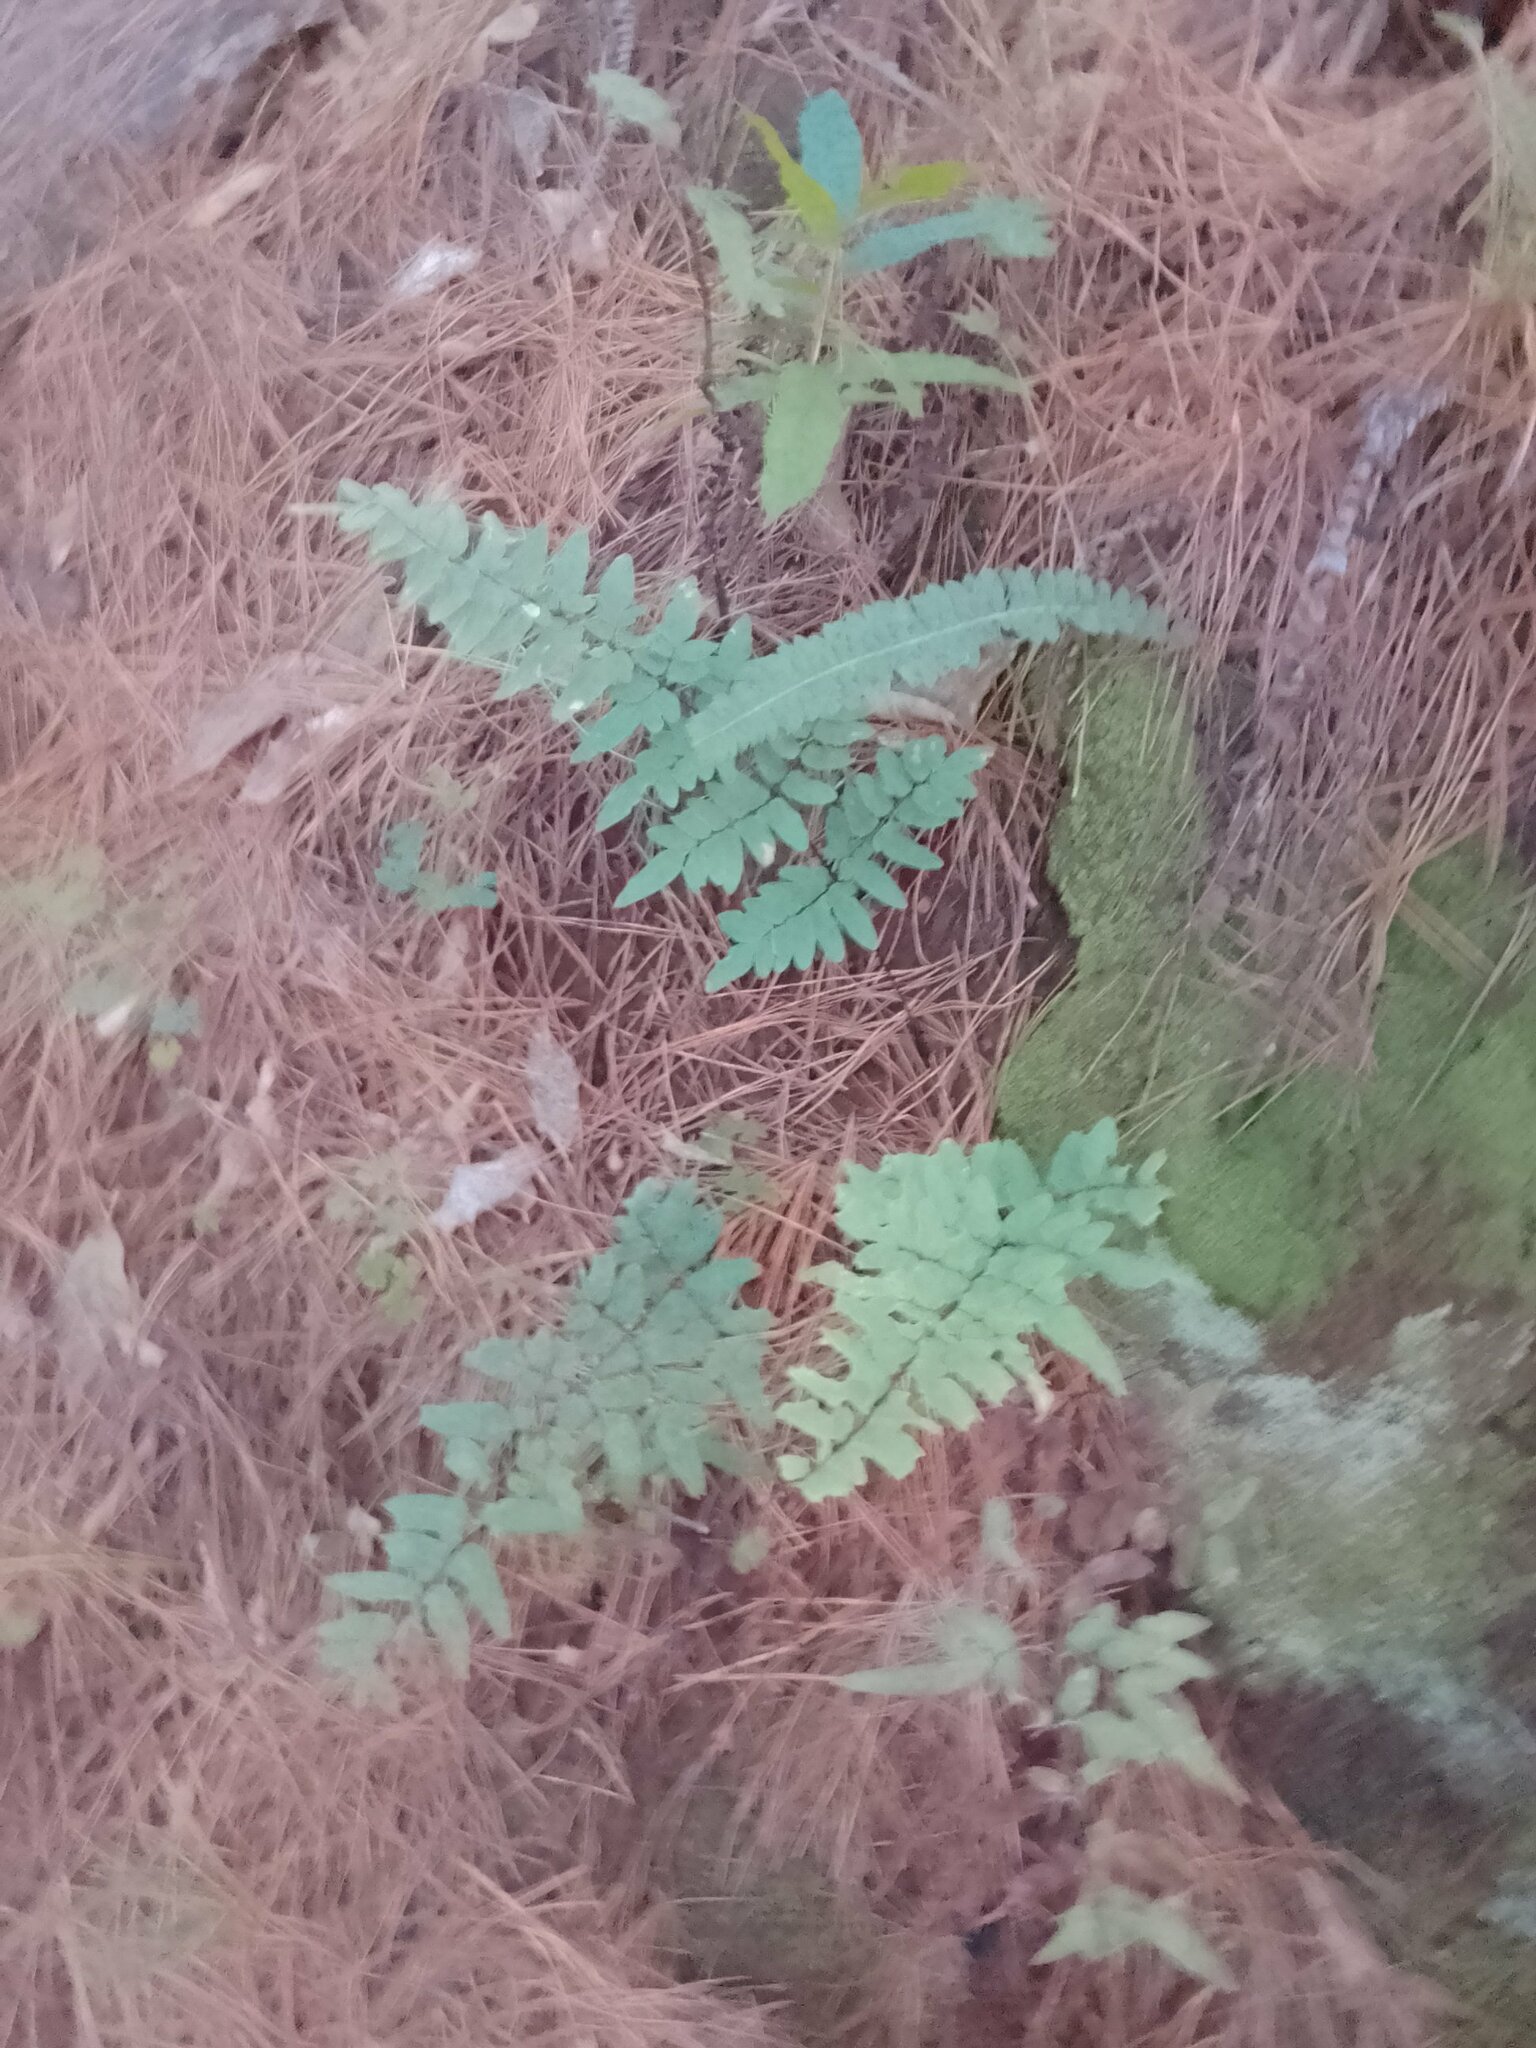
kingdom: Plantae
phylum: Tracheophyta
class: Polypodiopsida
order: Polypodiales
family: Pteridaceae
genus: Cheilanthes
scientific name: Cheilanthes viridis
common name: Green cliffbrake
